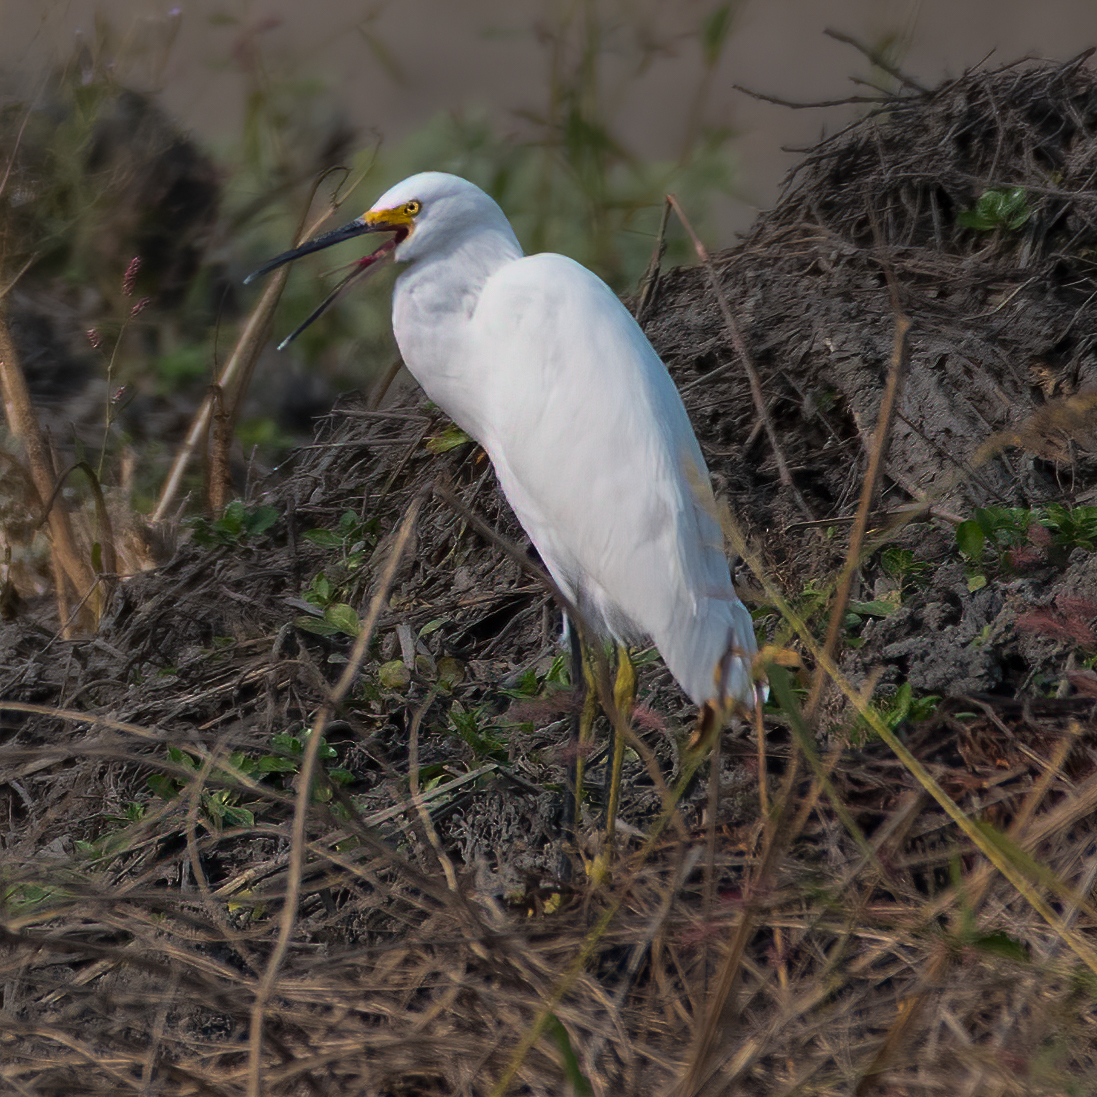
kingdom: Animalia
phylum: Chordata
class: Aves
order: Pelecaniformes
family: Ardeidae
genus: Egretta
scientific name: Egretta thula
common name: Snowy egret
